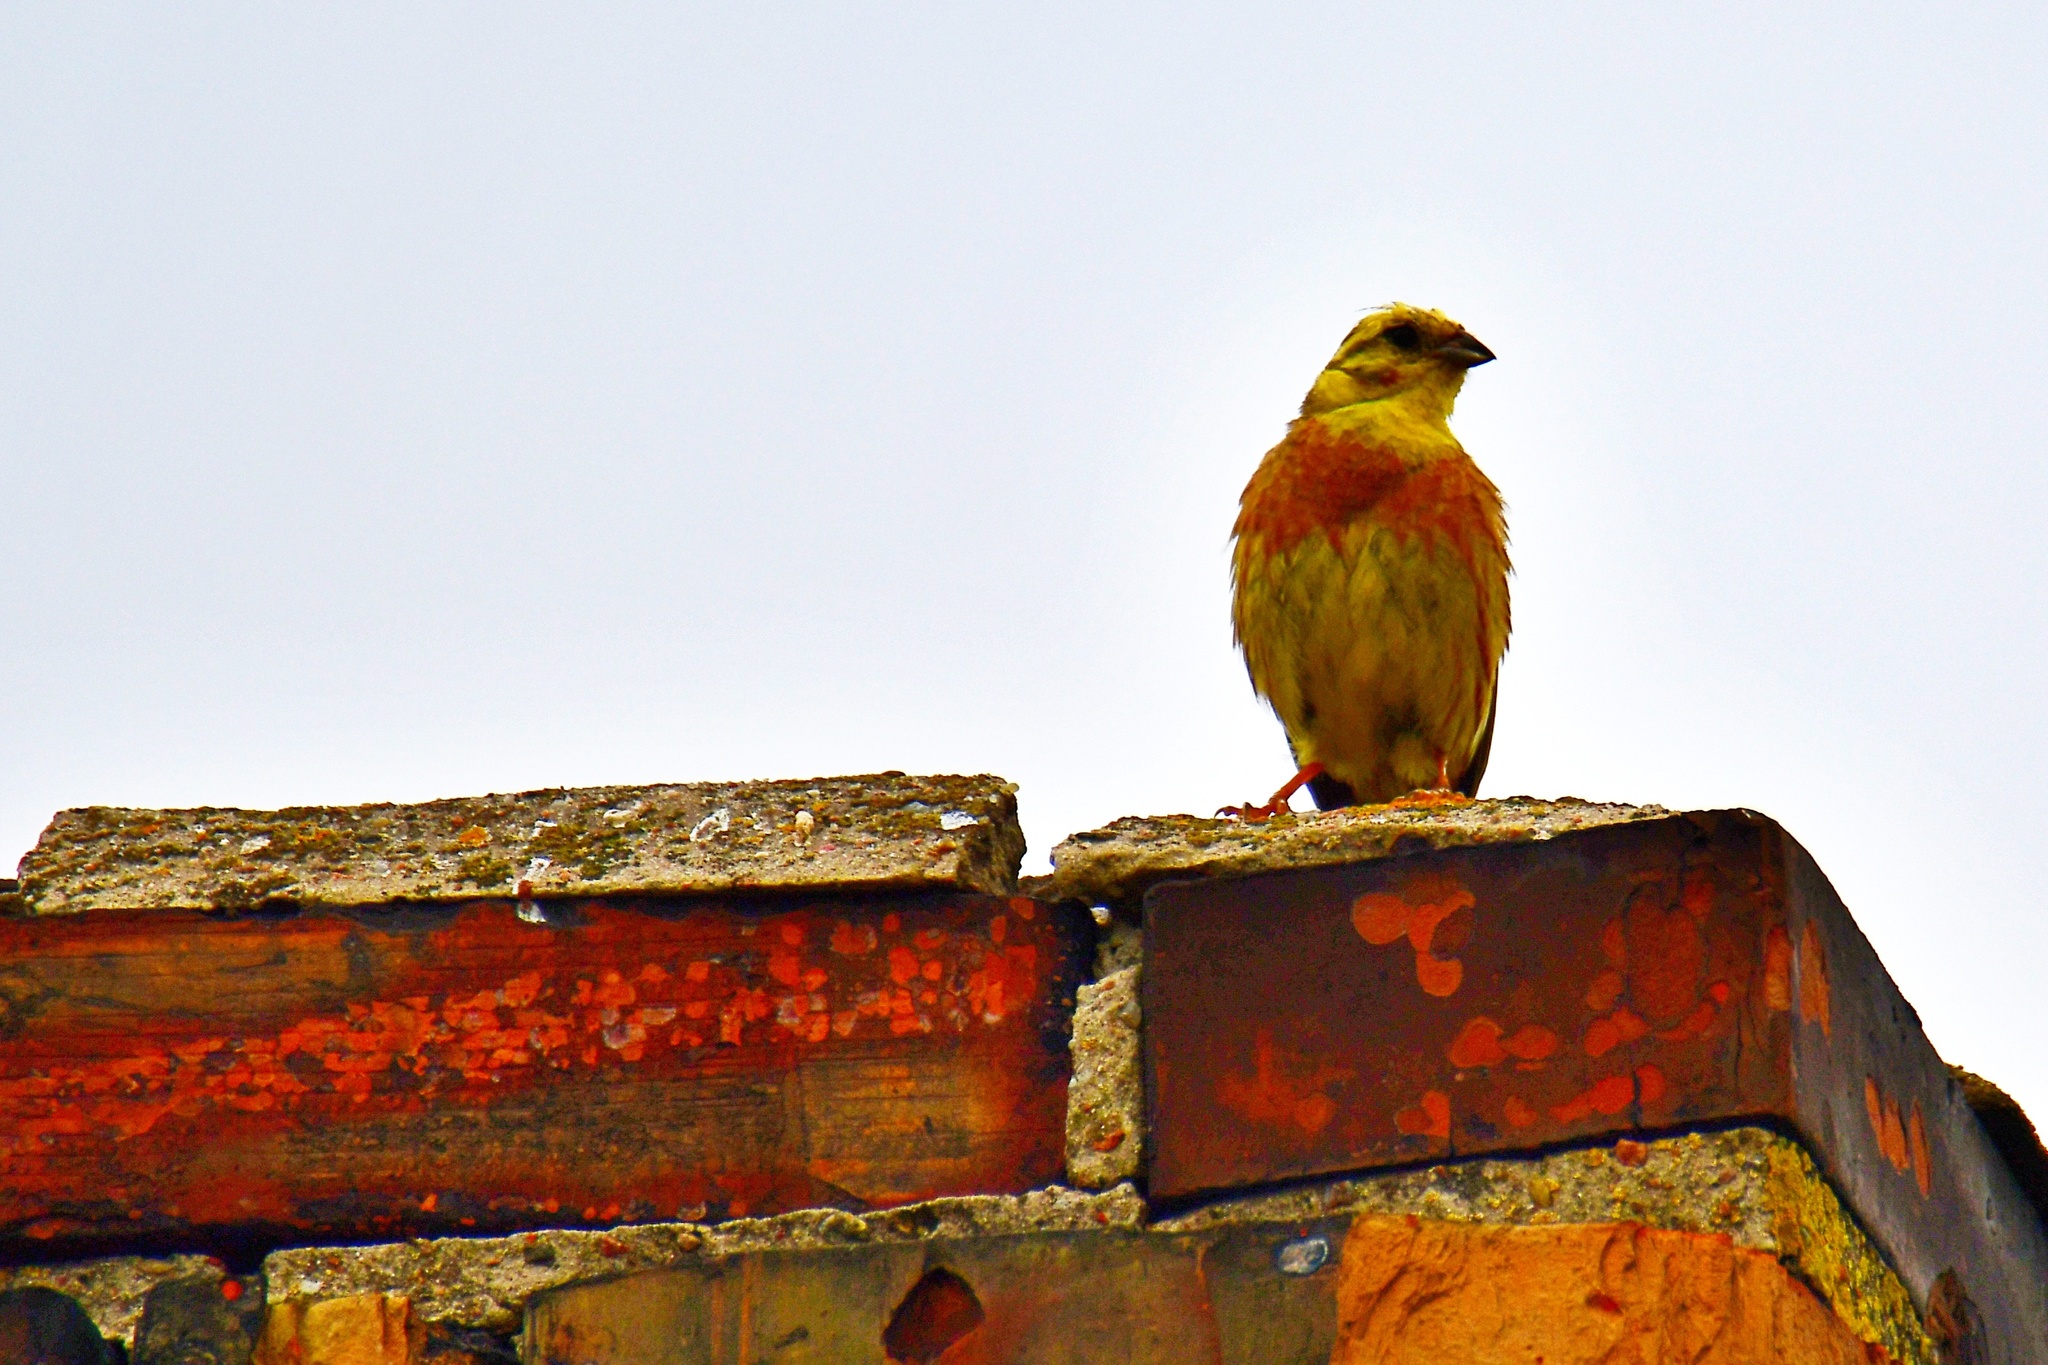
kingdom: Animalia
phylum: Chordata
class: Aves
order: Passeriformes
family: Emberizidae
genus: Emberiza
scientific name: Emberiza citrinella
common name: Yellowhammer
